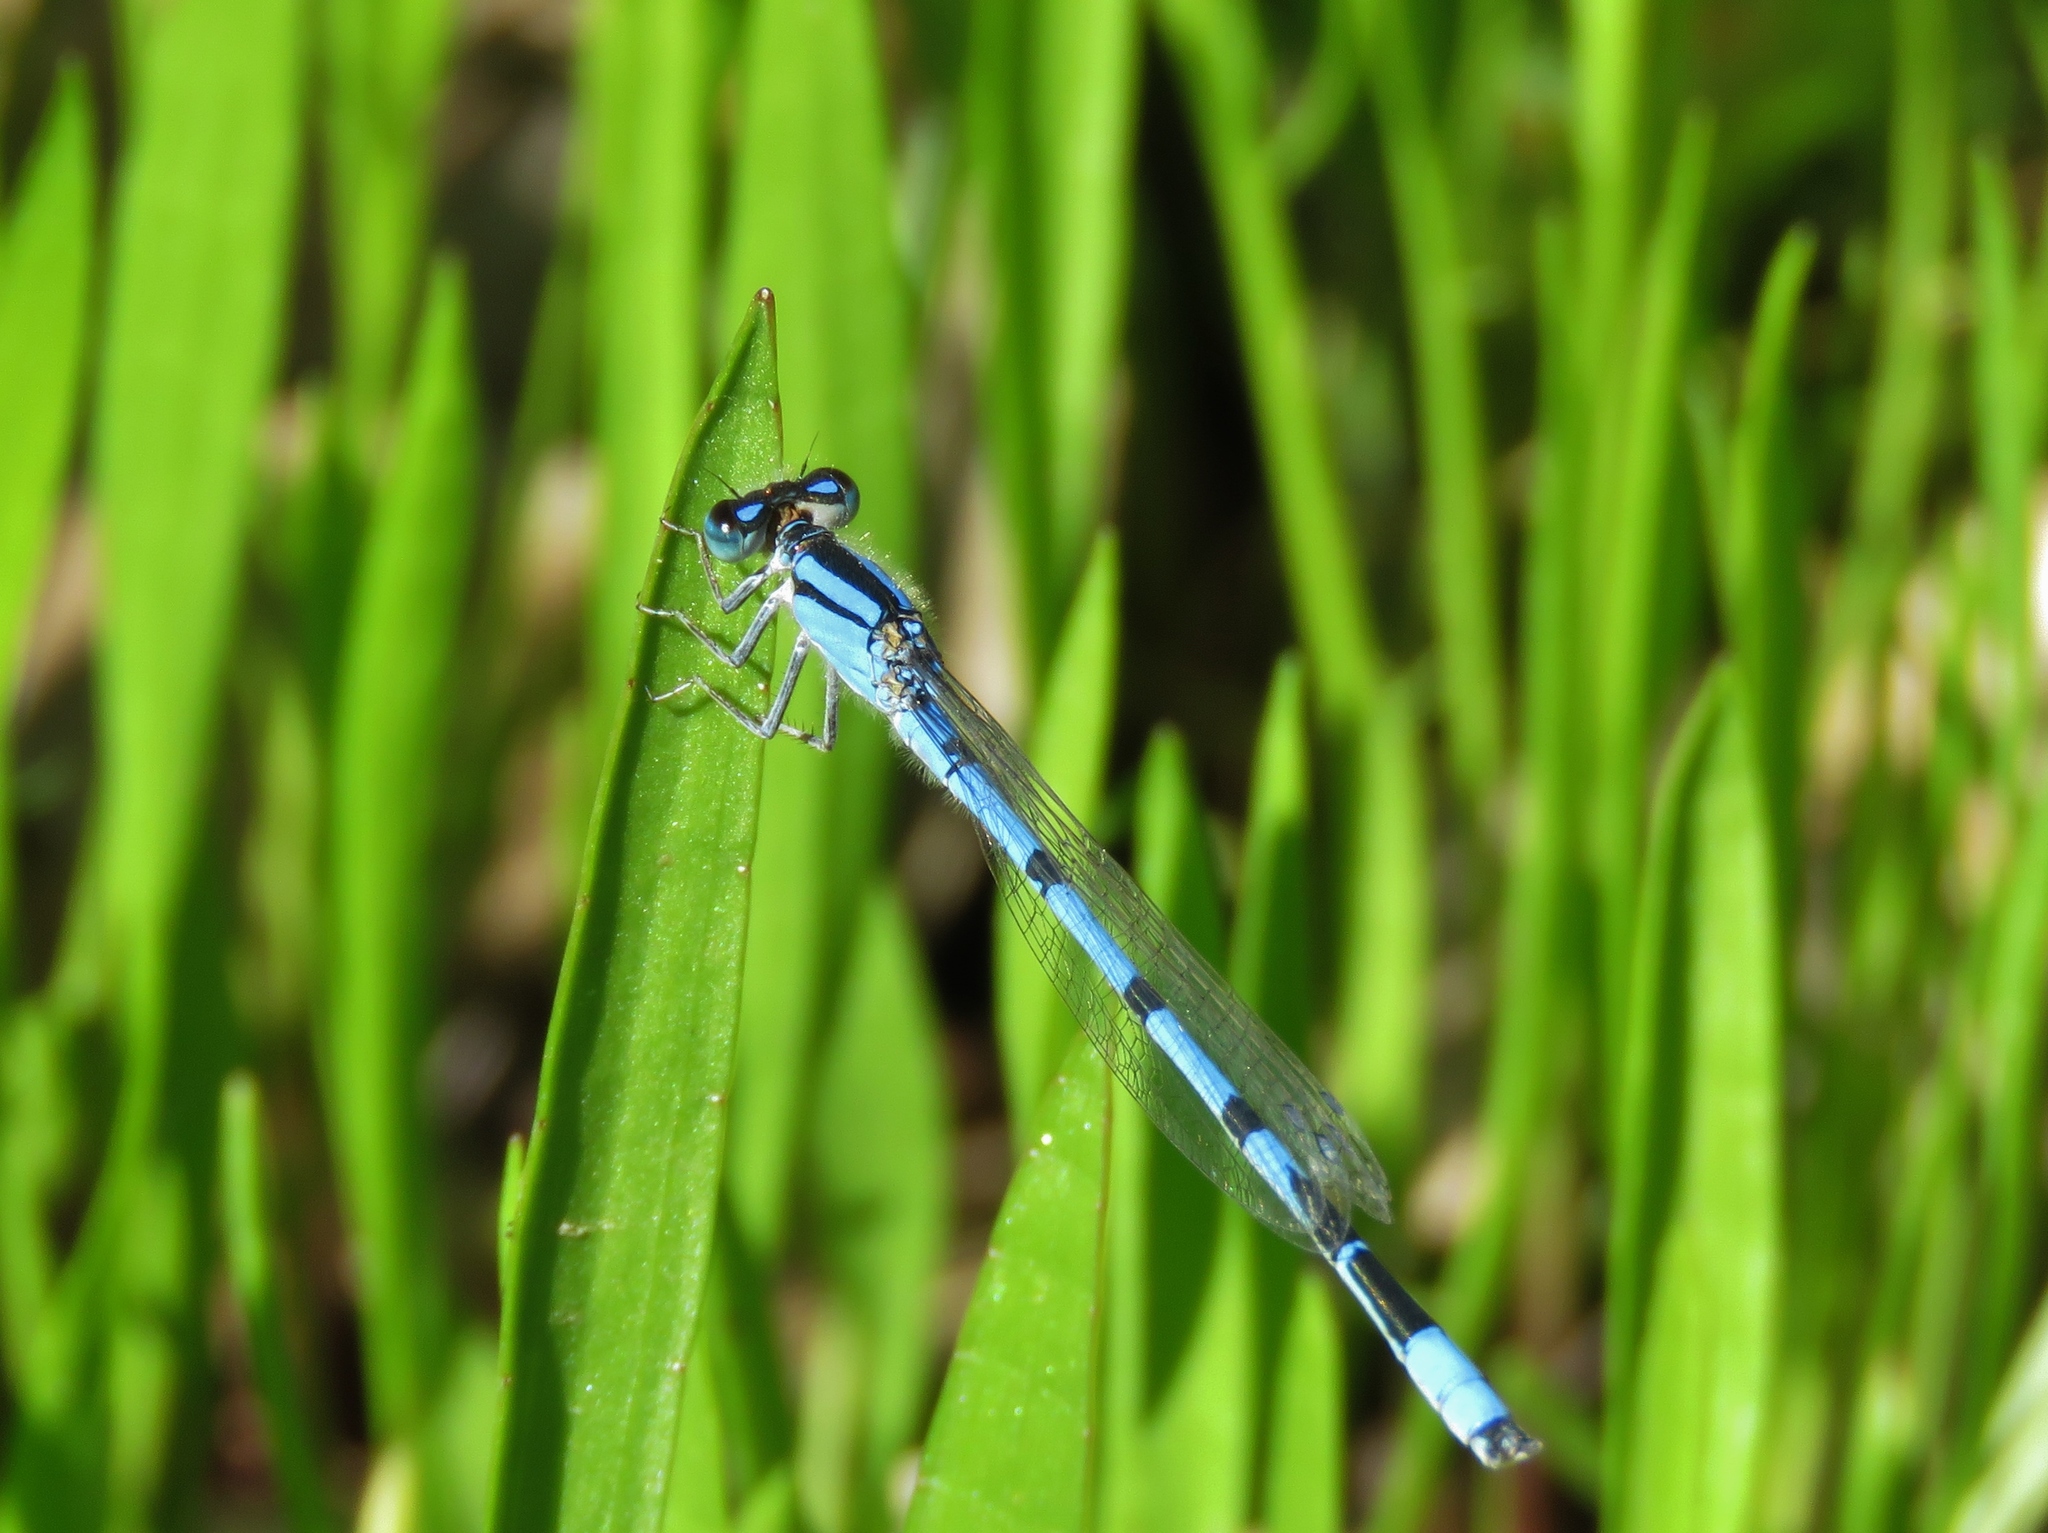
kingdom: Animalia
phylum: Arthropoda
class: Insecta
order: Odonata
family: Coenagrionidae
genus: Enallagma
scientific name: Enallagma civile
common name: Damselfly
